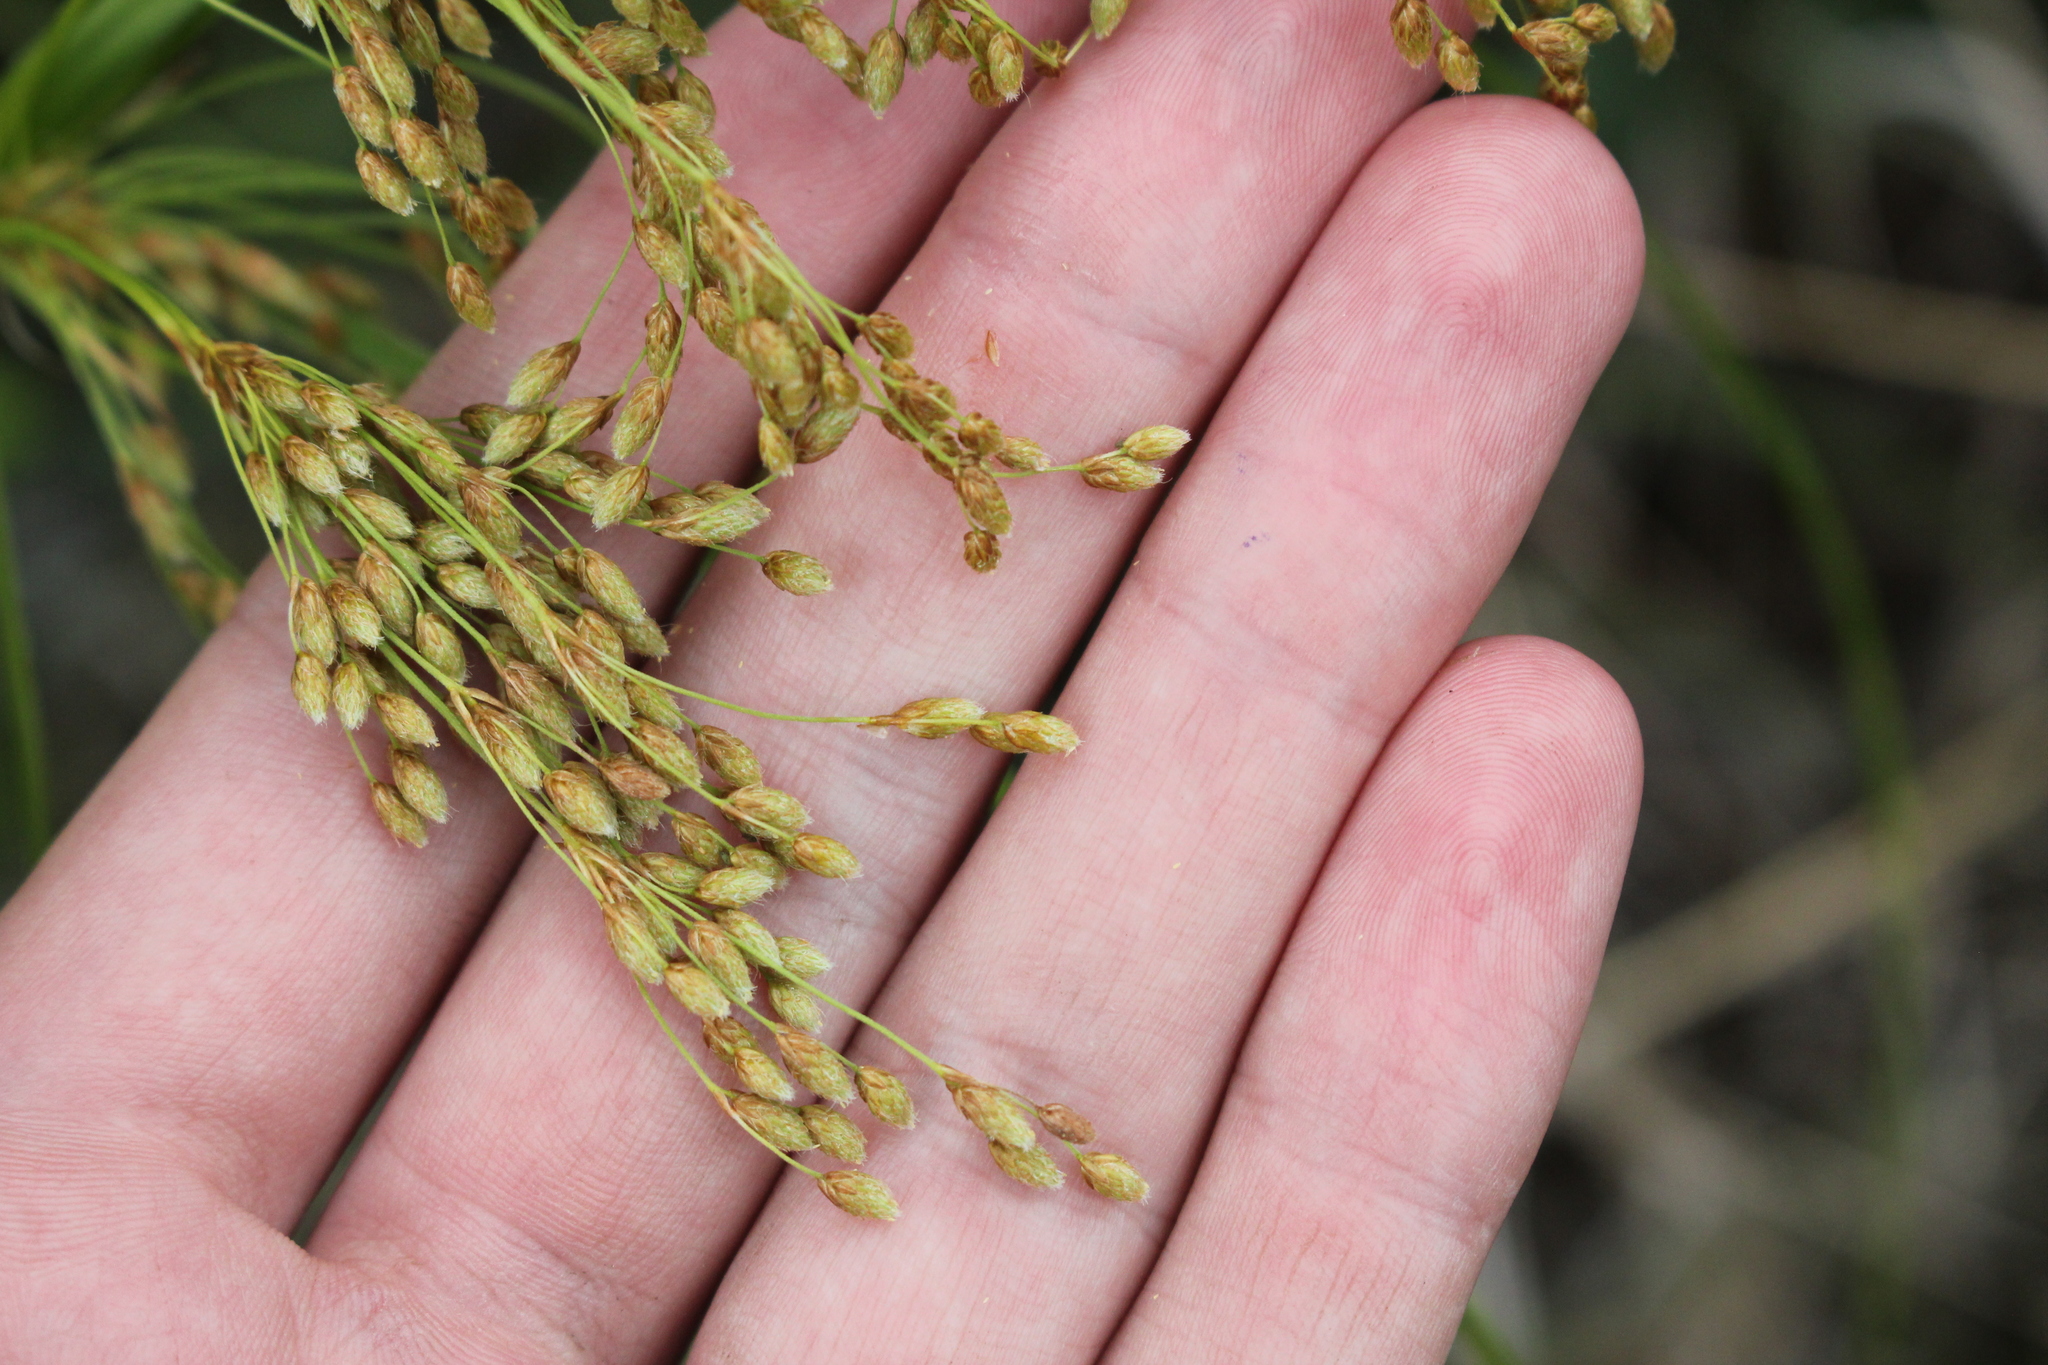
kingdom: Plantae
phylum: Tracheophyta
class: Liliopsida
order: Poales
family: Cyperaceae
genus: Scirpus
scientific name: Scirpus pedicellatus
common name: Pedicelled bulrush
